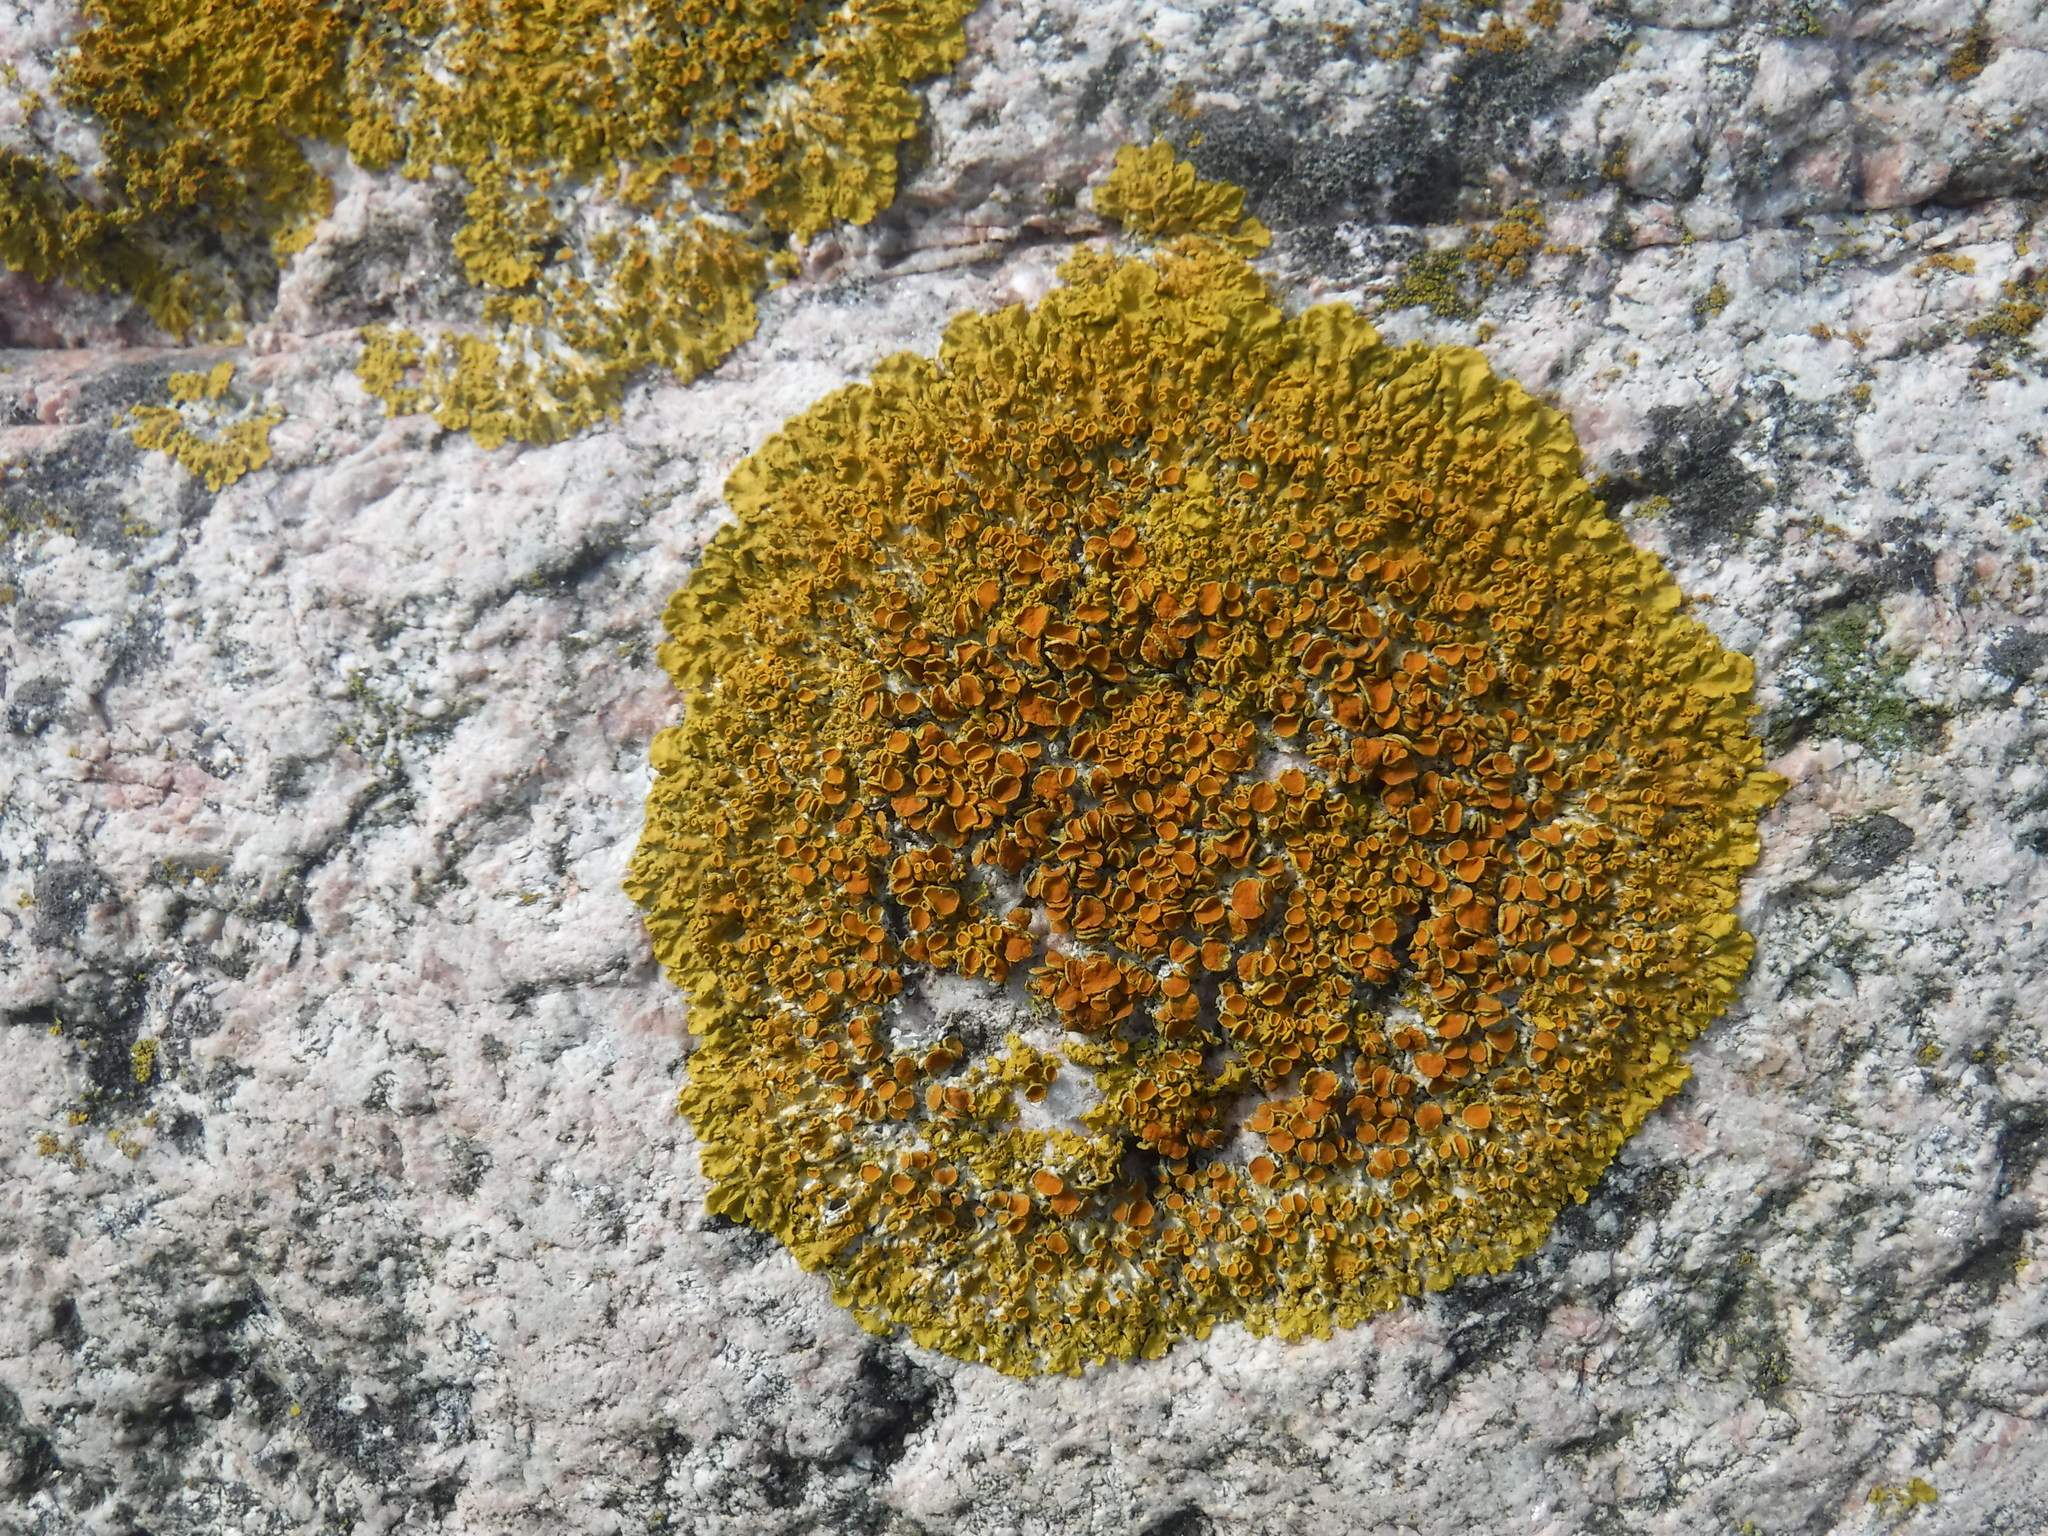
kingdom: Fungi
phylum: Ascomycota
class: Lecanoromycetes
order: Teloschistales
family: Teloschistaceae
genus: Xanthoria
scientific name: Xanthoria parietina
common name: Common orange lichen
